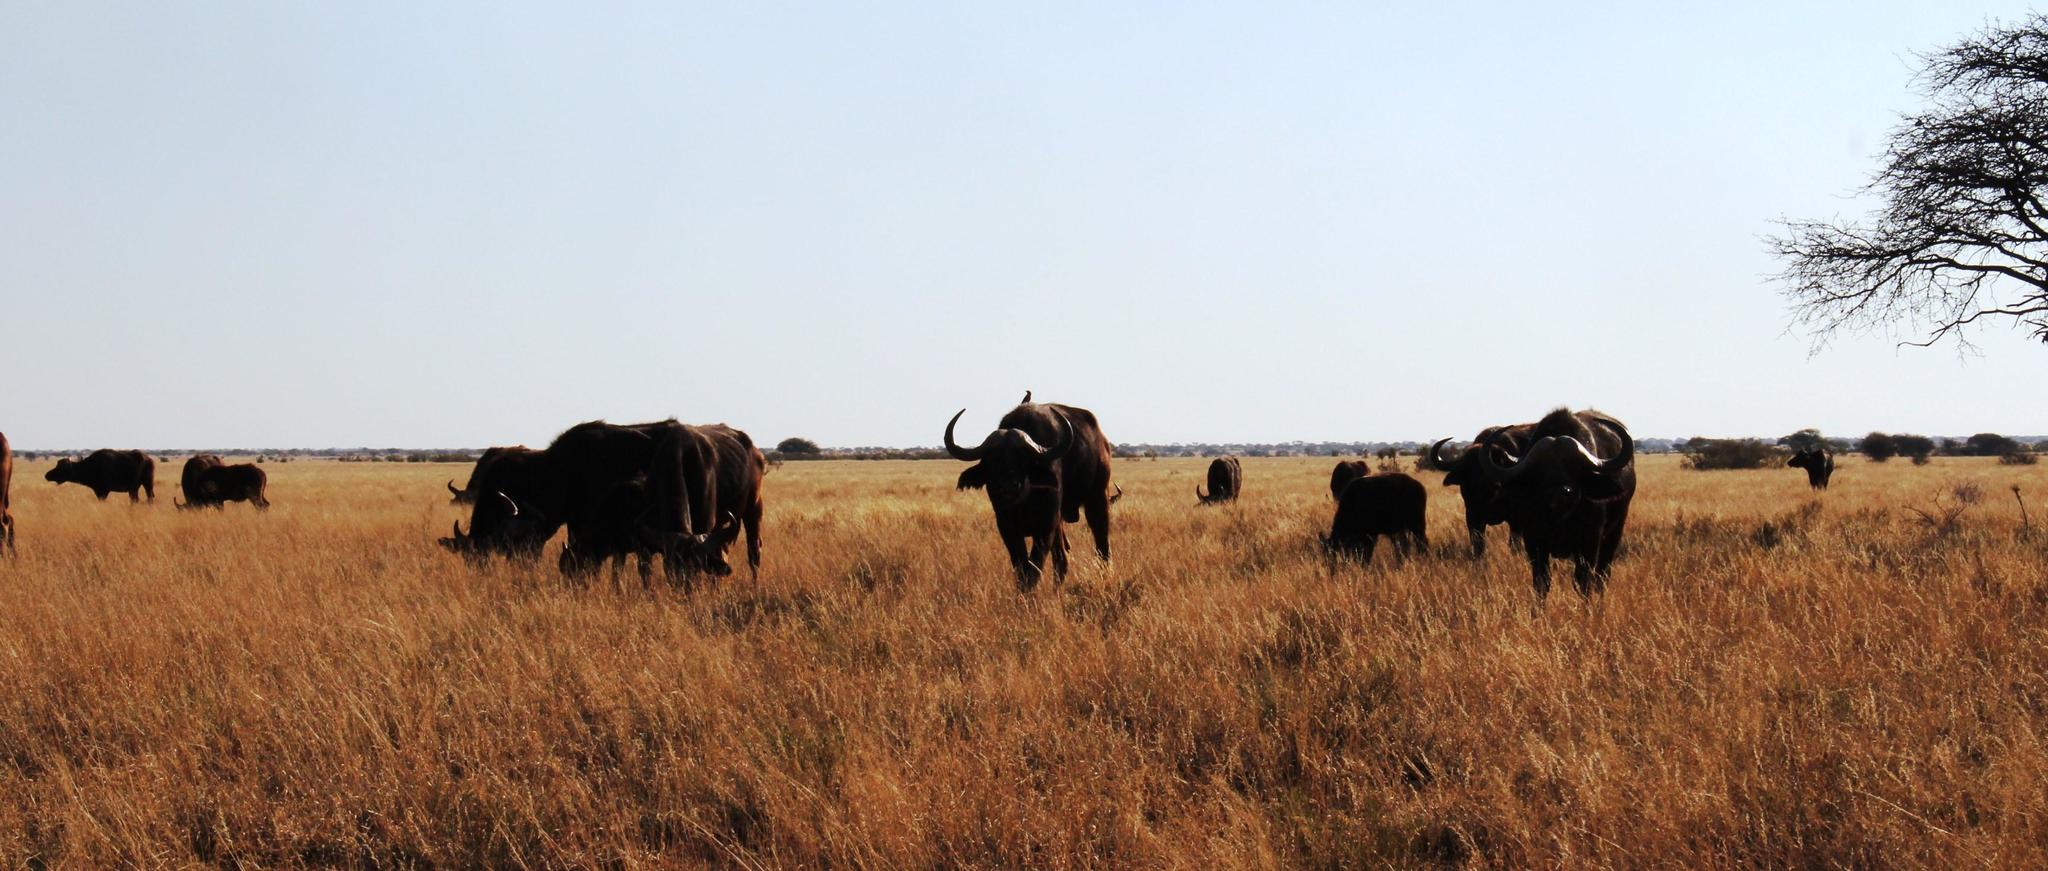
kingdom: Animalia
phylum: Chordata
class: Mammalia
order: Artiodactyla
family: Bovidae
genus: Syncerus
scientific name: Syncerus caffer
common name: African buffalo
